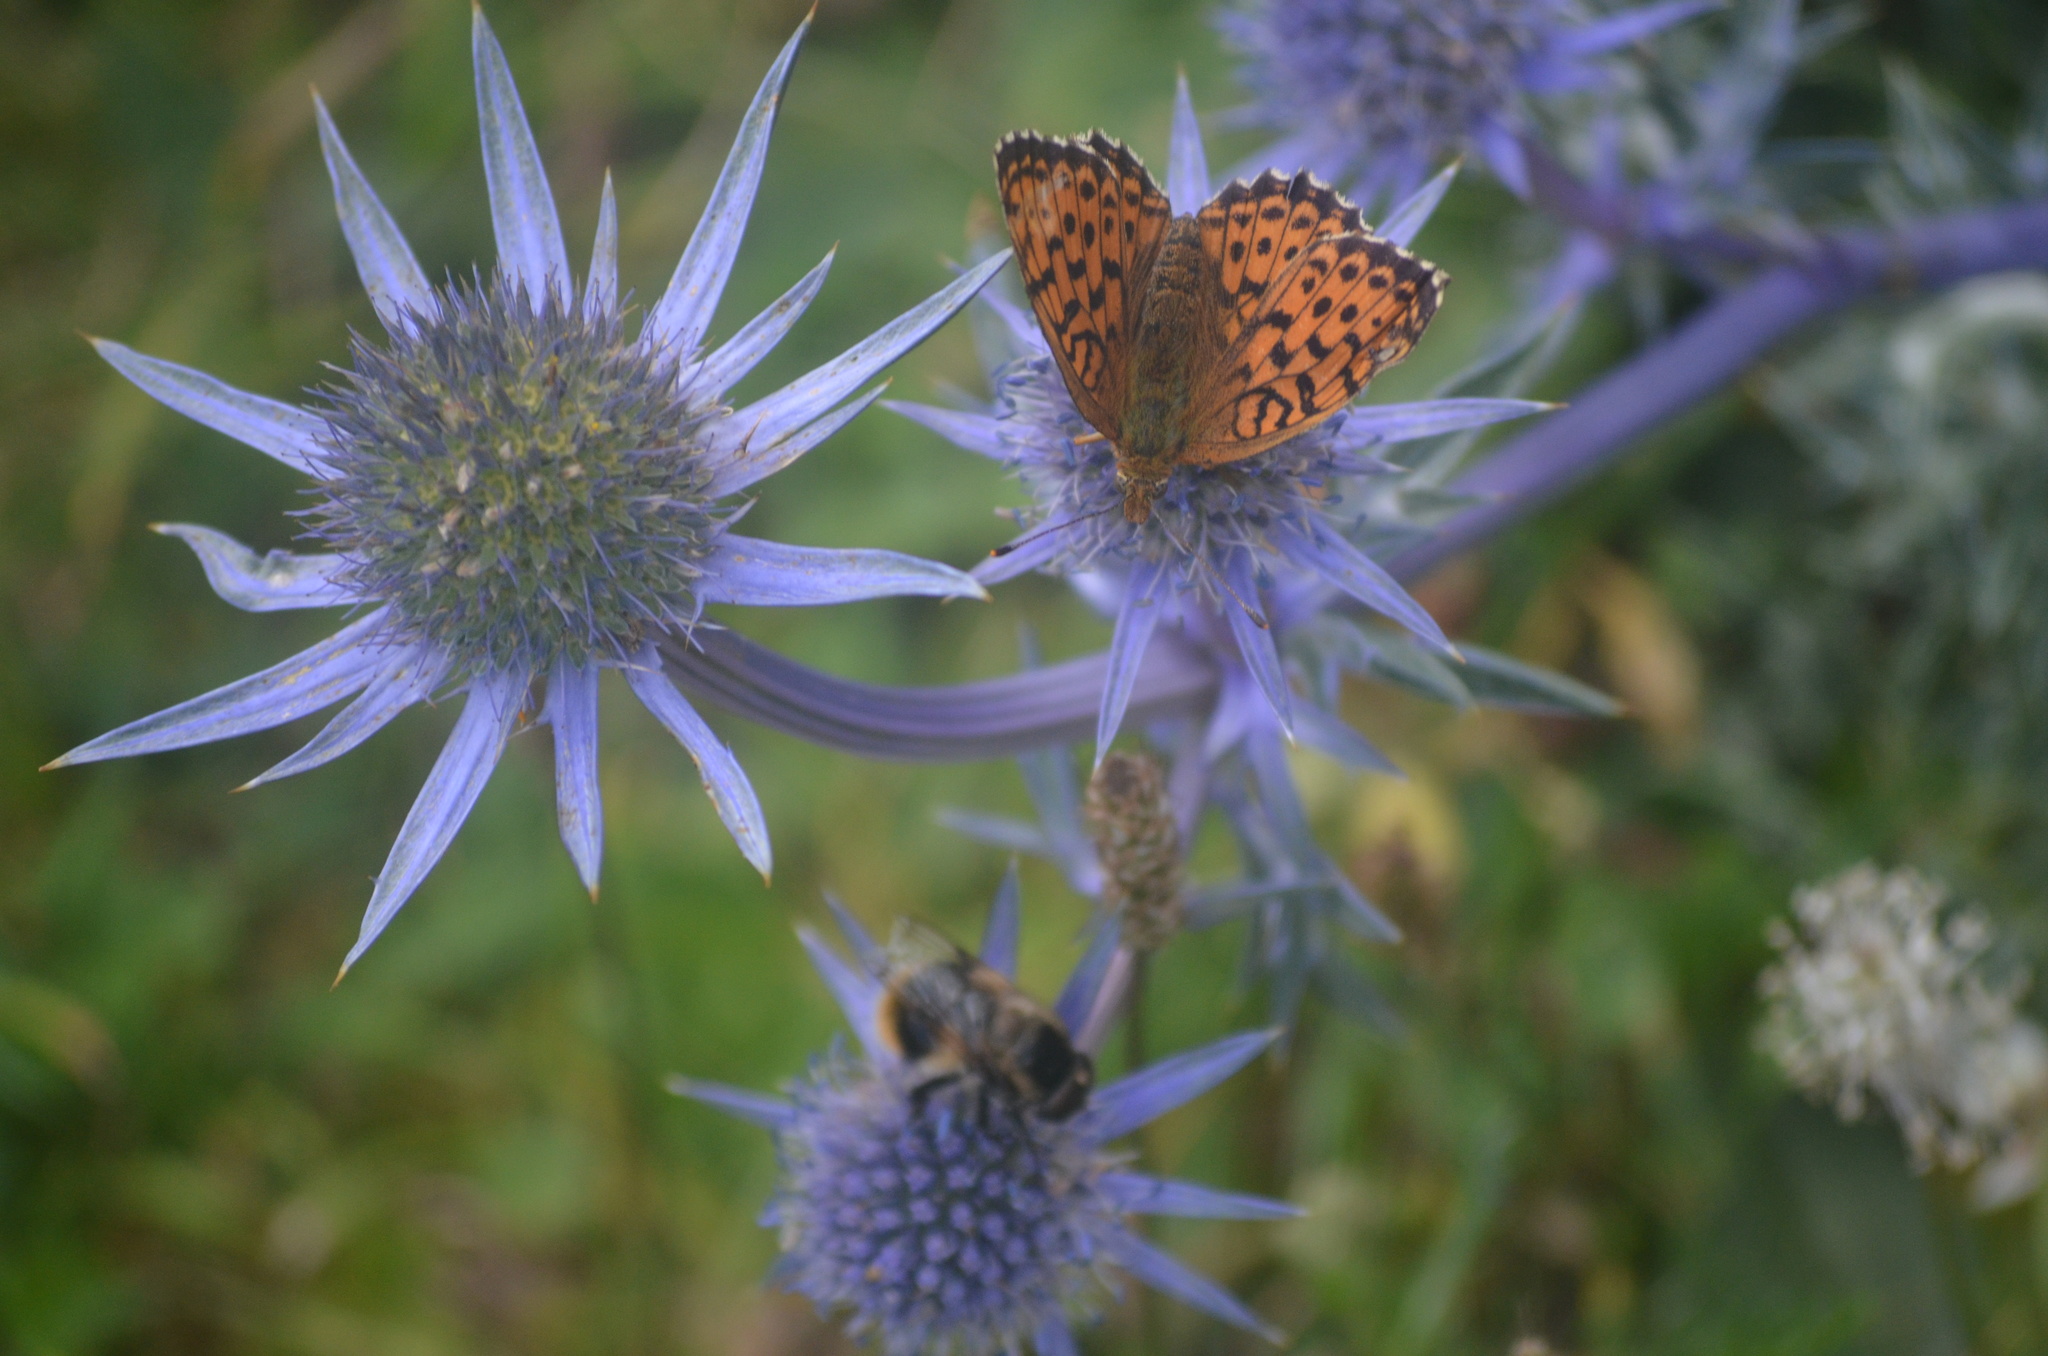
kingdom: Animalia
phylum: Arthropoda
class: Insecta
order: Lepidoptera
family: Nymphalidae
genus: Brenthis
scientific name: Brenthis ino
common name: Lesser marbled fritillary
